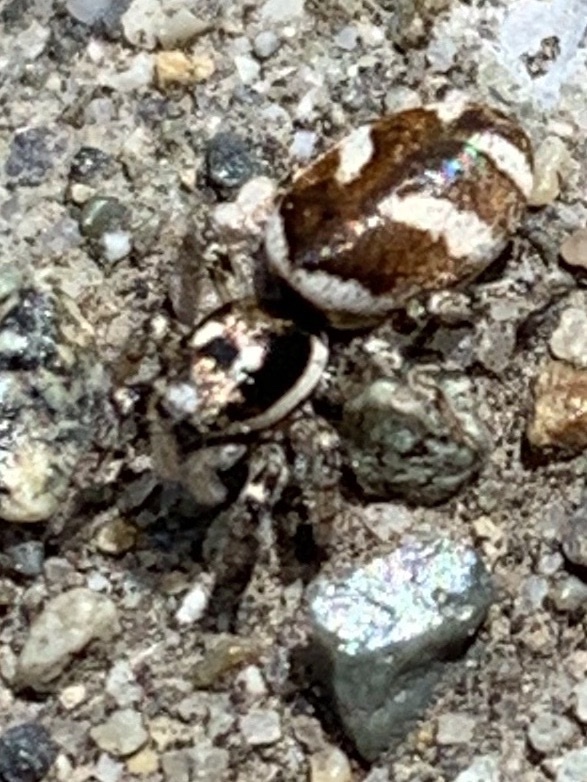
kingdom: Animalia
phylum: Arthropoda
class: Arachnida
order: Araneae
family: Salticidae
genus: Salticus
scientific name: Salticus scenicus
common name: Zebra jumper
